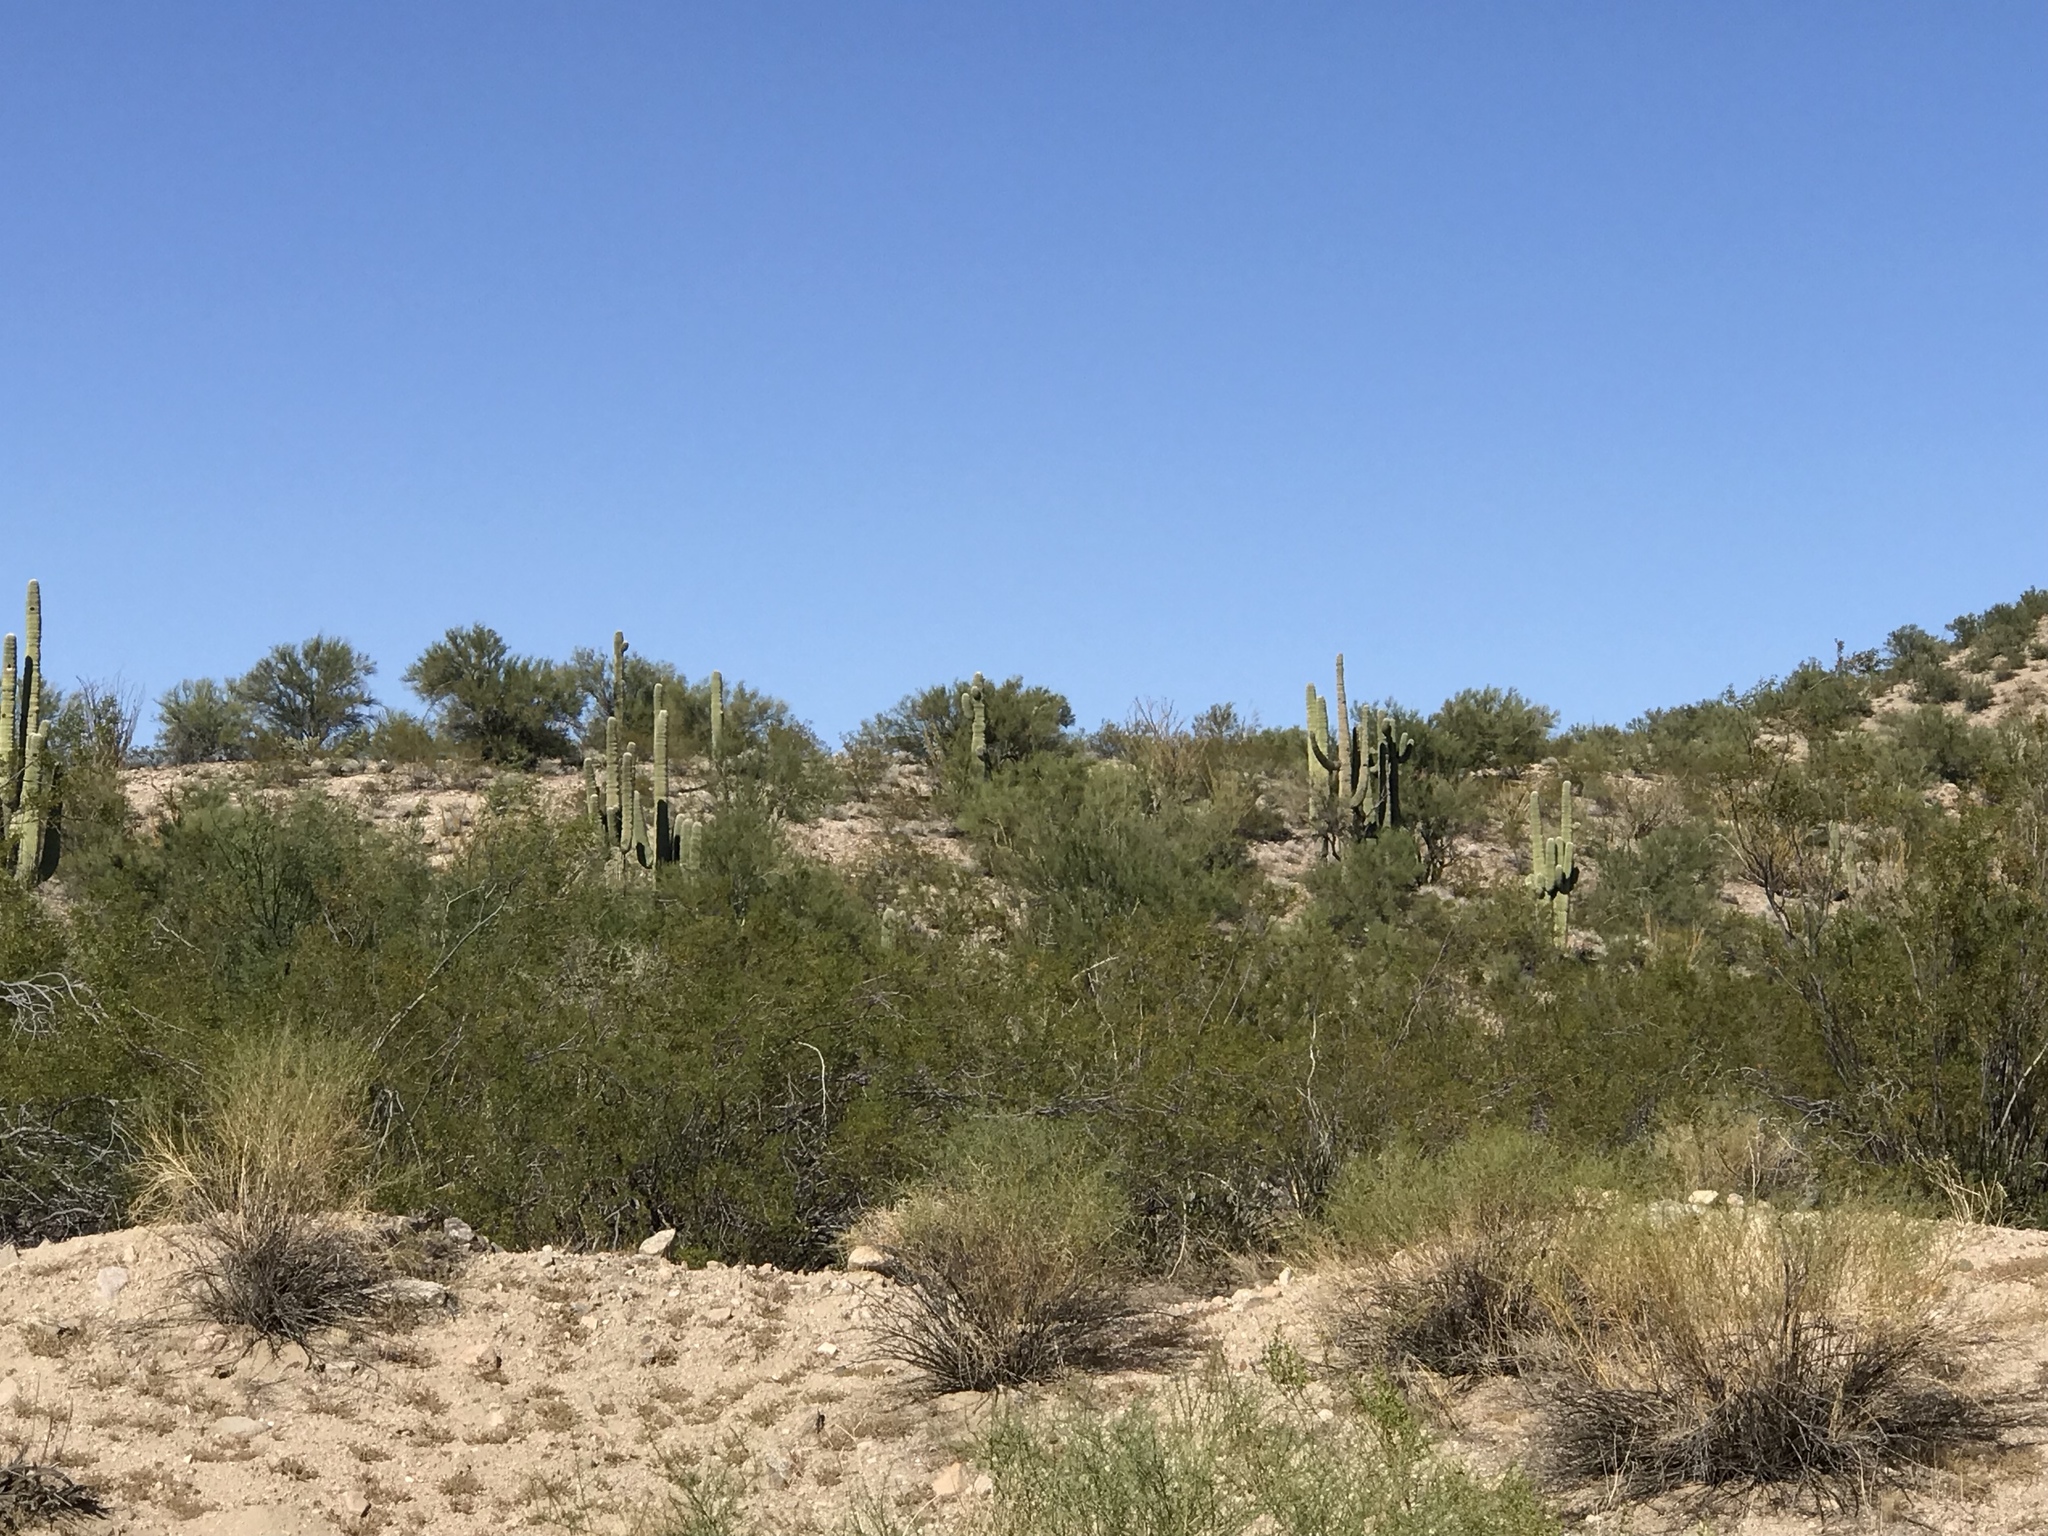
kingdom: Plantae
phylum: Tracheophyta
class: Magnoliopsida
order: Caryophyllales
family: Cactaceae
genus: Carnegiea
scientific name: Carnegiea gigantea
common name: Saguaro
